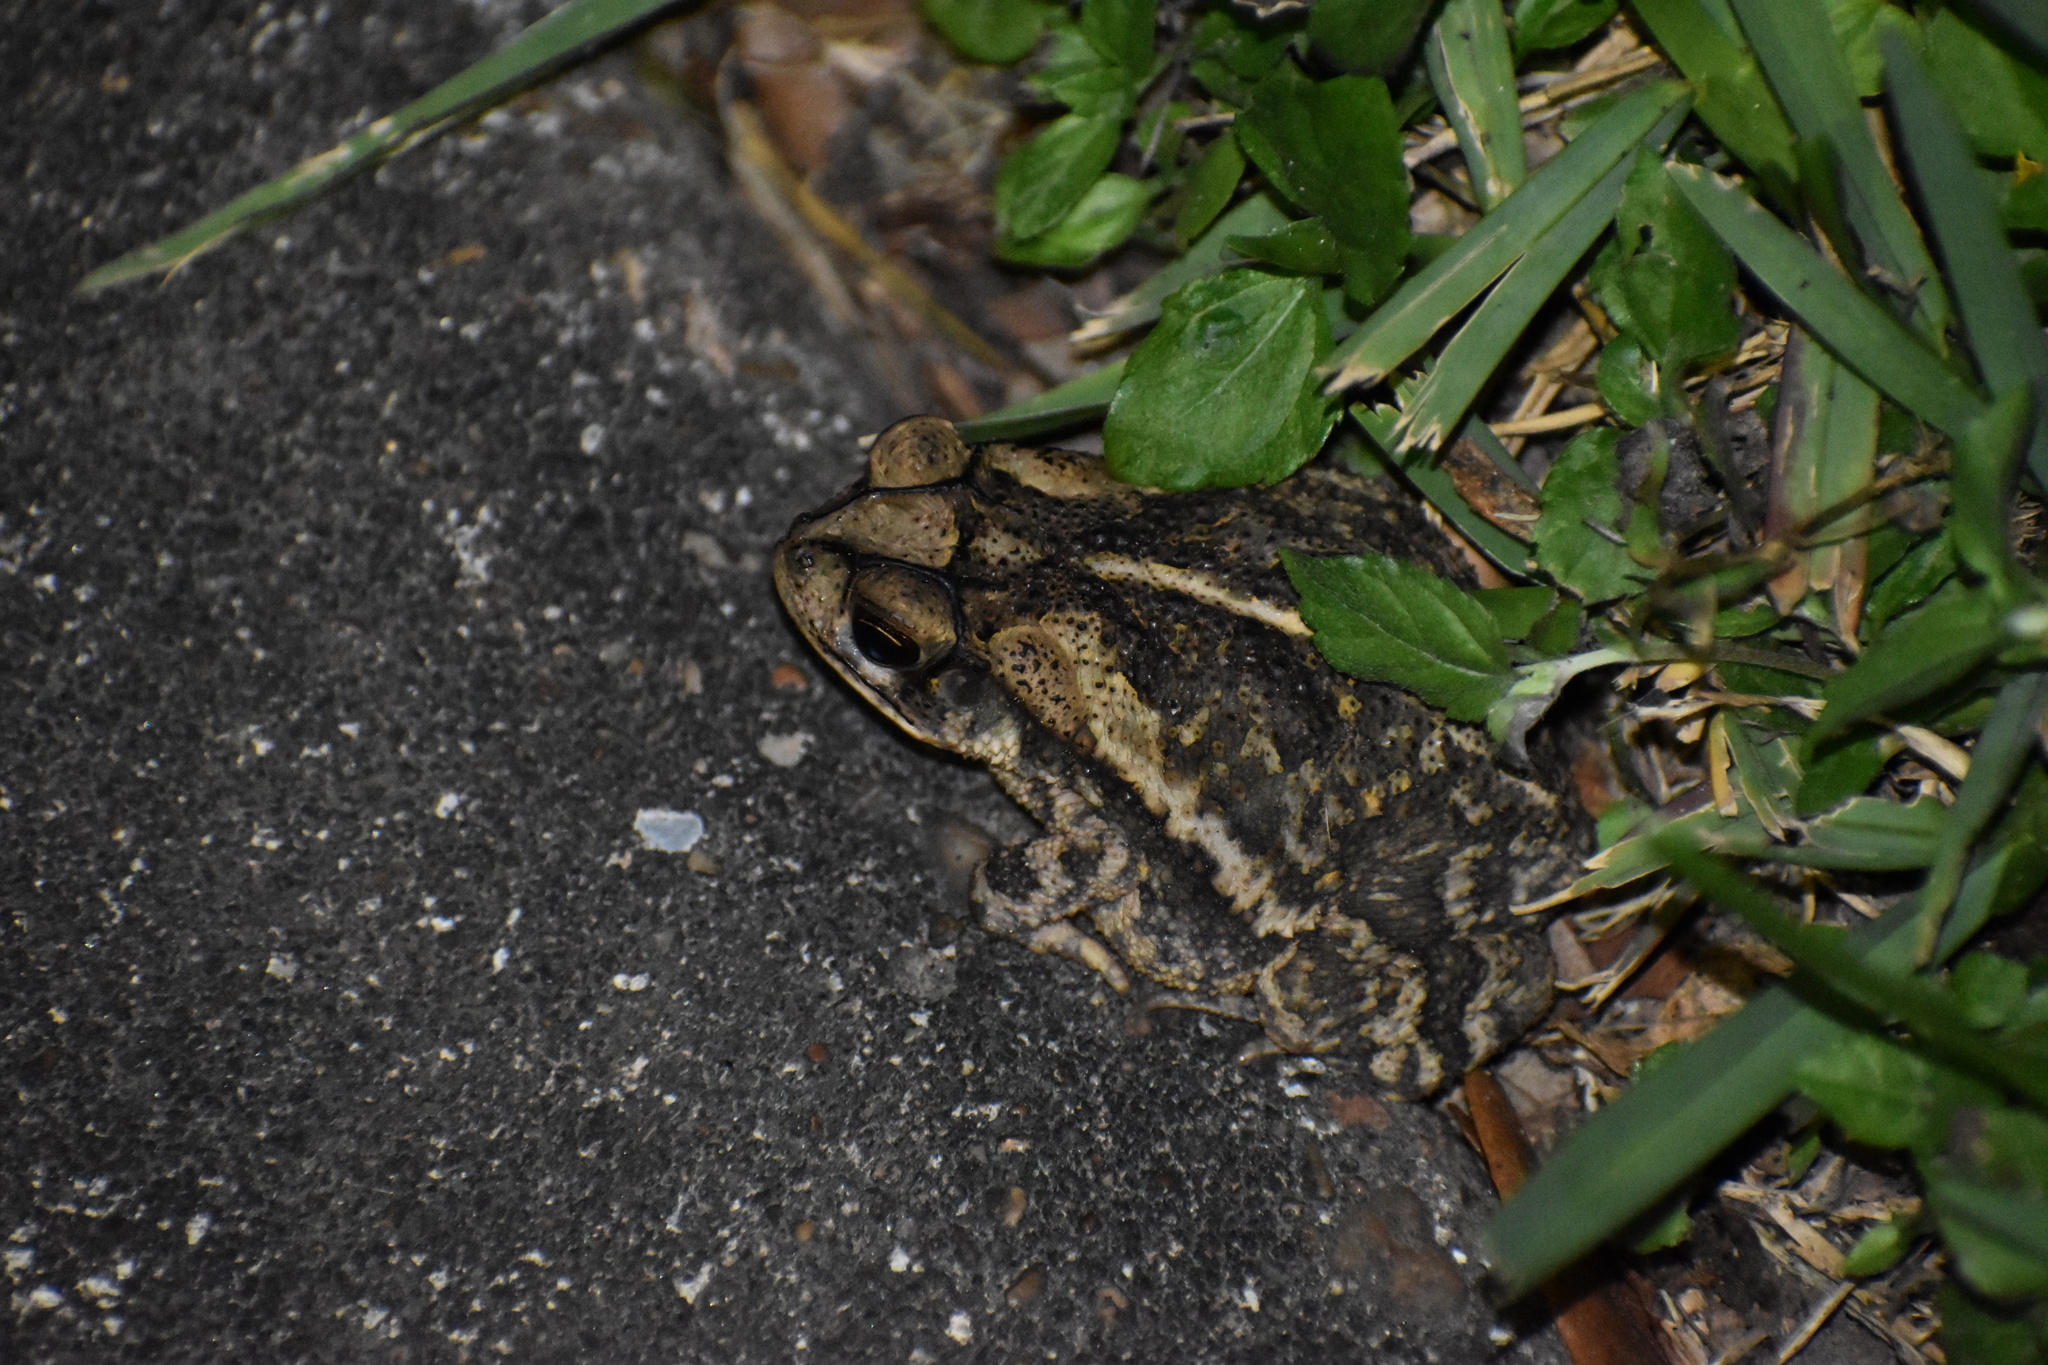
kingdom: Animalia
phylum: Chordata
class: Amphibia
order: Anura
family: Bufonidae
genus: Incilius
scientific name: Incilius nebulifer
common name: Gulf coast toad
